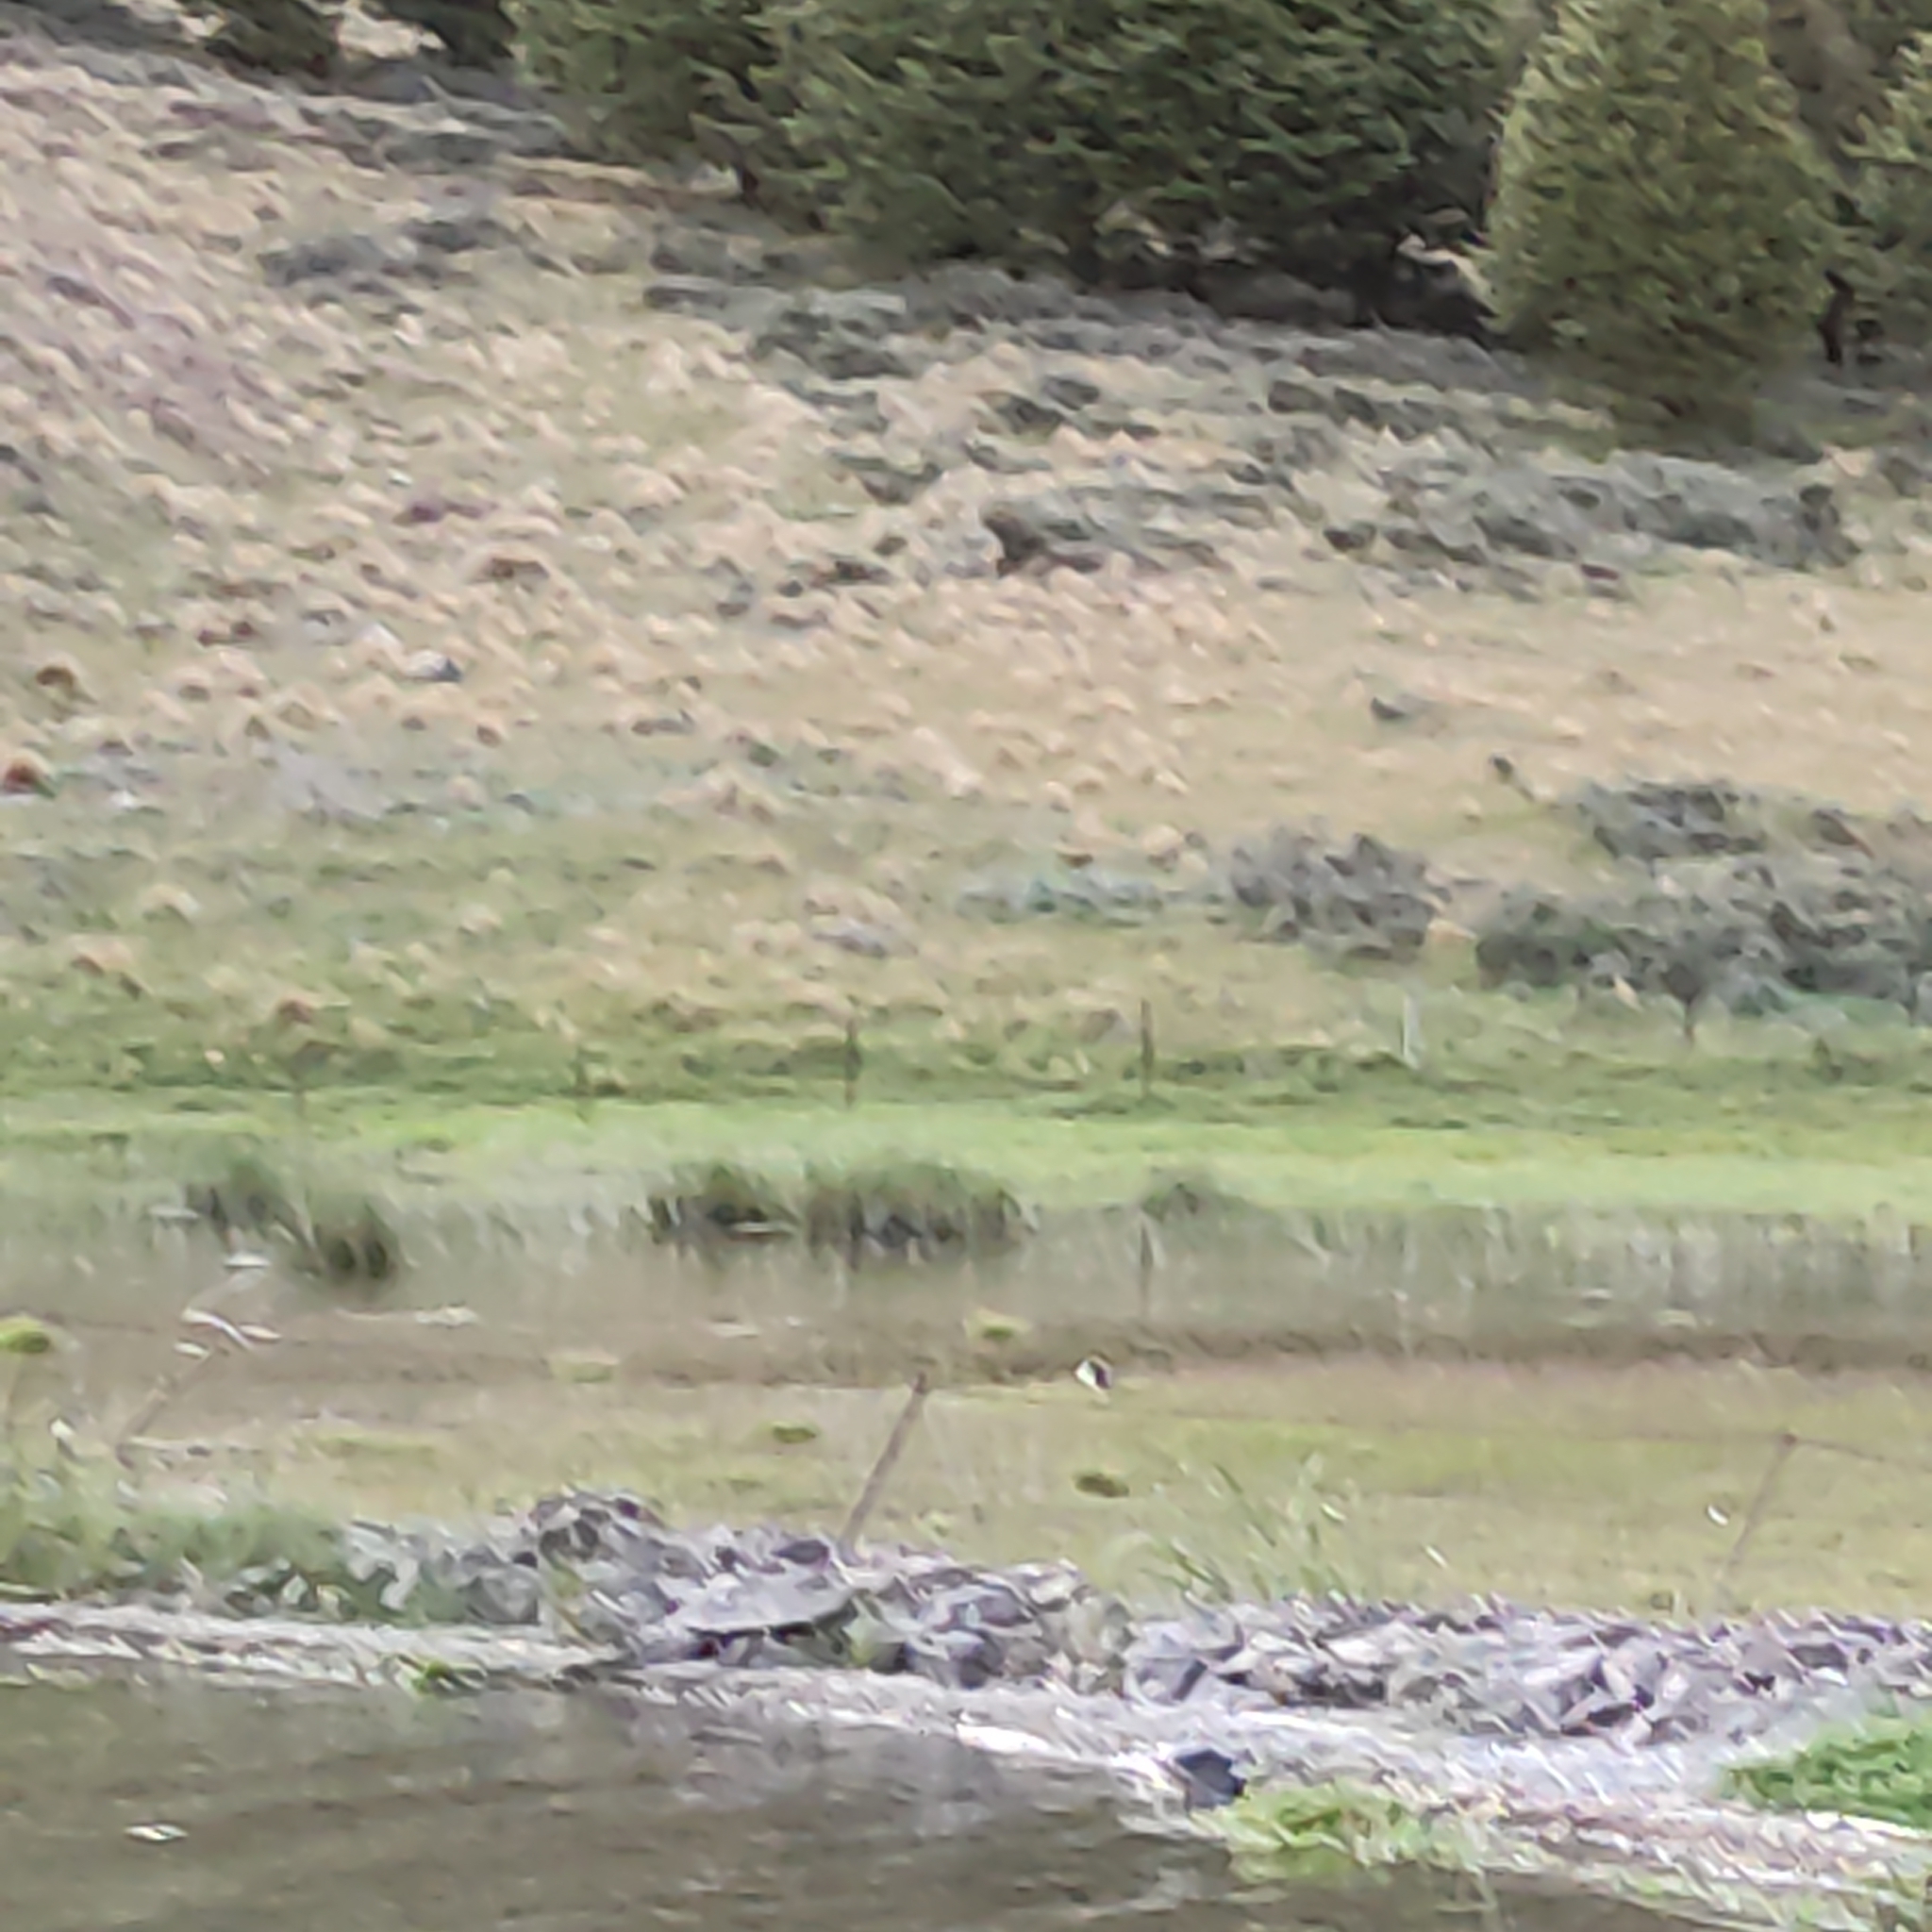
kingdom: Animalia
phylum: Chordata
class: Aves
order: Charadriiformes
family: Haematopodidae
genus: Haematopus
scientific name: Haematopus finschi
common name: South island oystercatcher
